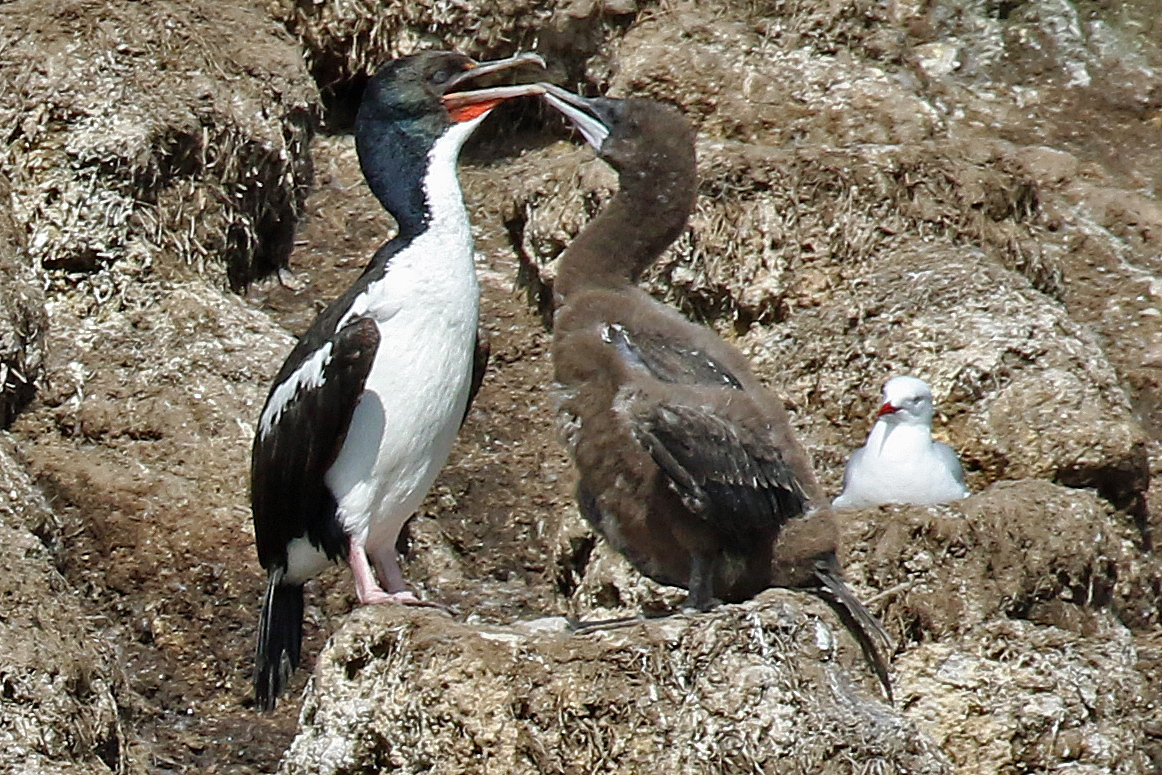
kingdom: Animalia
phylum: Chordata
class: Aves
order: Suliformes
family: Phalacrocoracidae
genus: Leucocarbo
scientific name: Leucocarbo chalconotus
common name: Stewart shag
